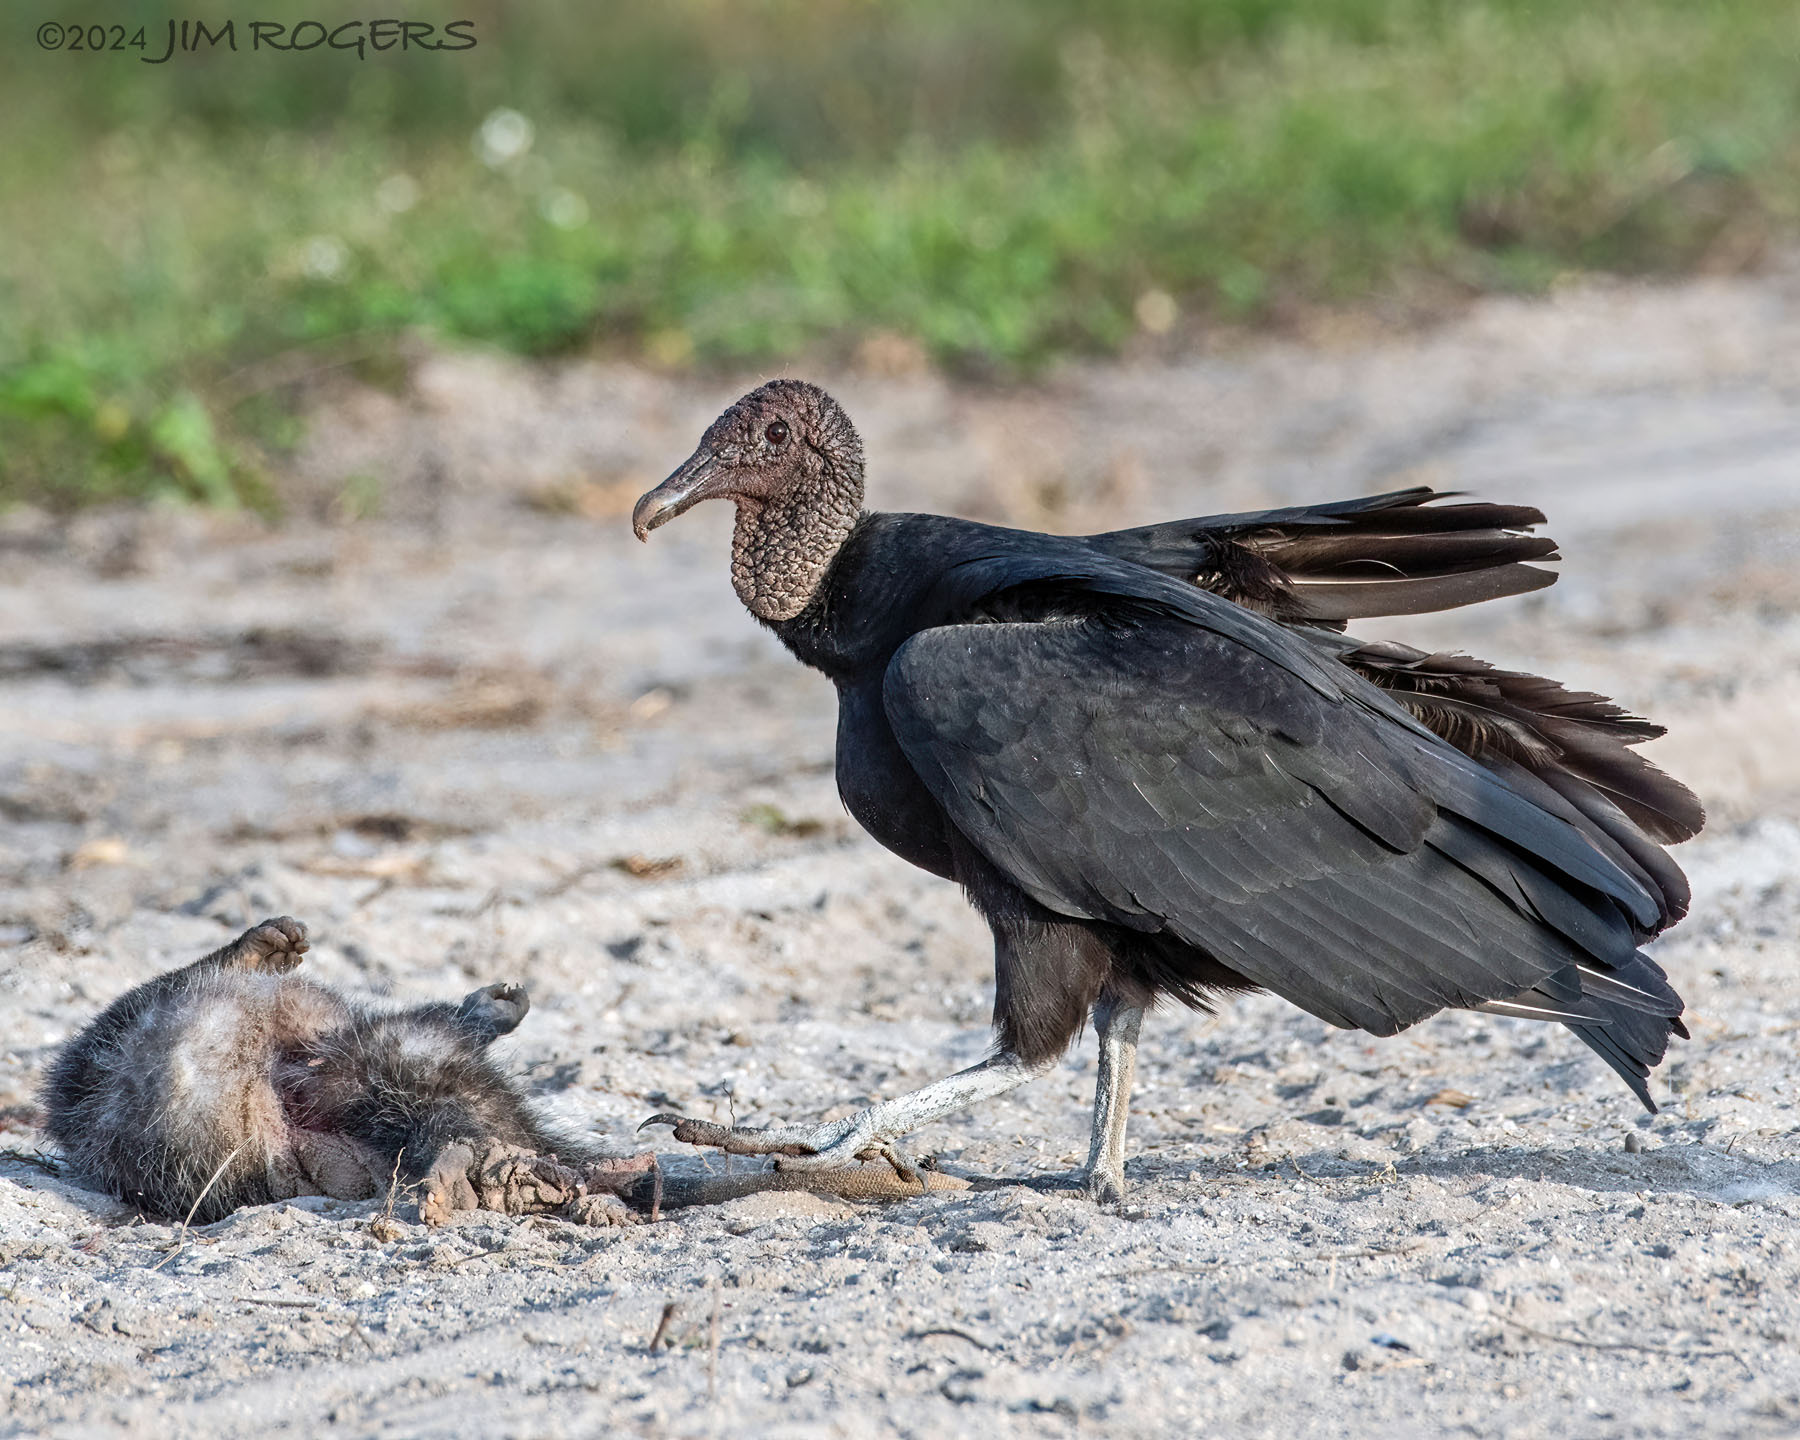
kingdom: Animalia
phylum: Chordata
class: Aves
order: Accipitriformes
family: Cathartidae
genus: Coragyps
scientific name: Coragyps atratus
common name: Black vulture
